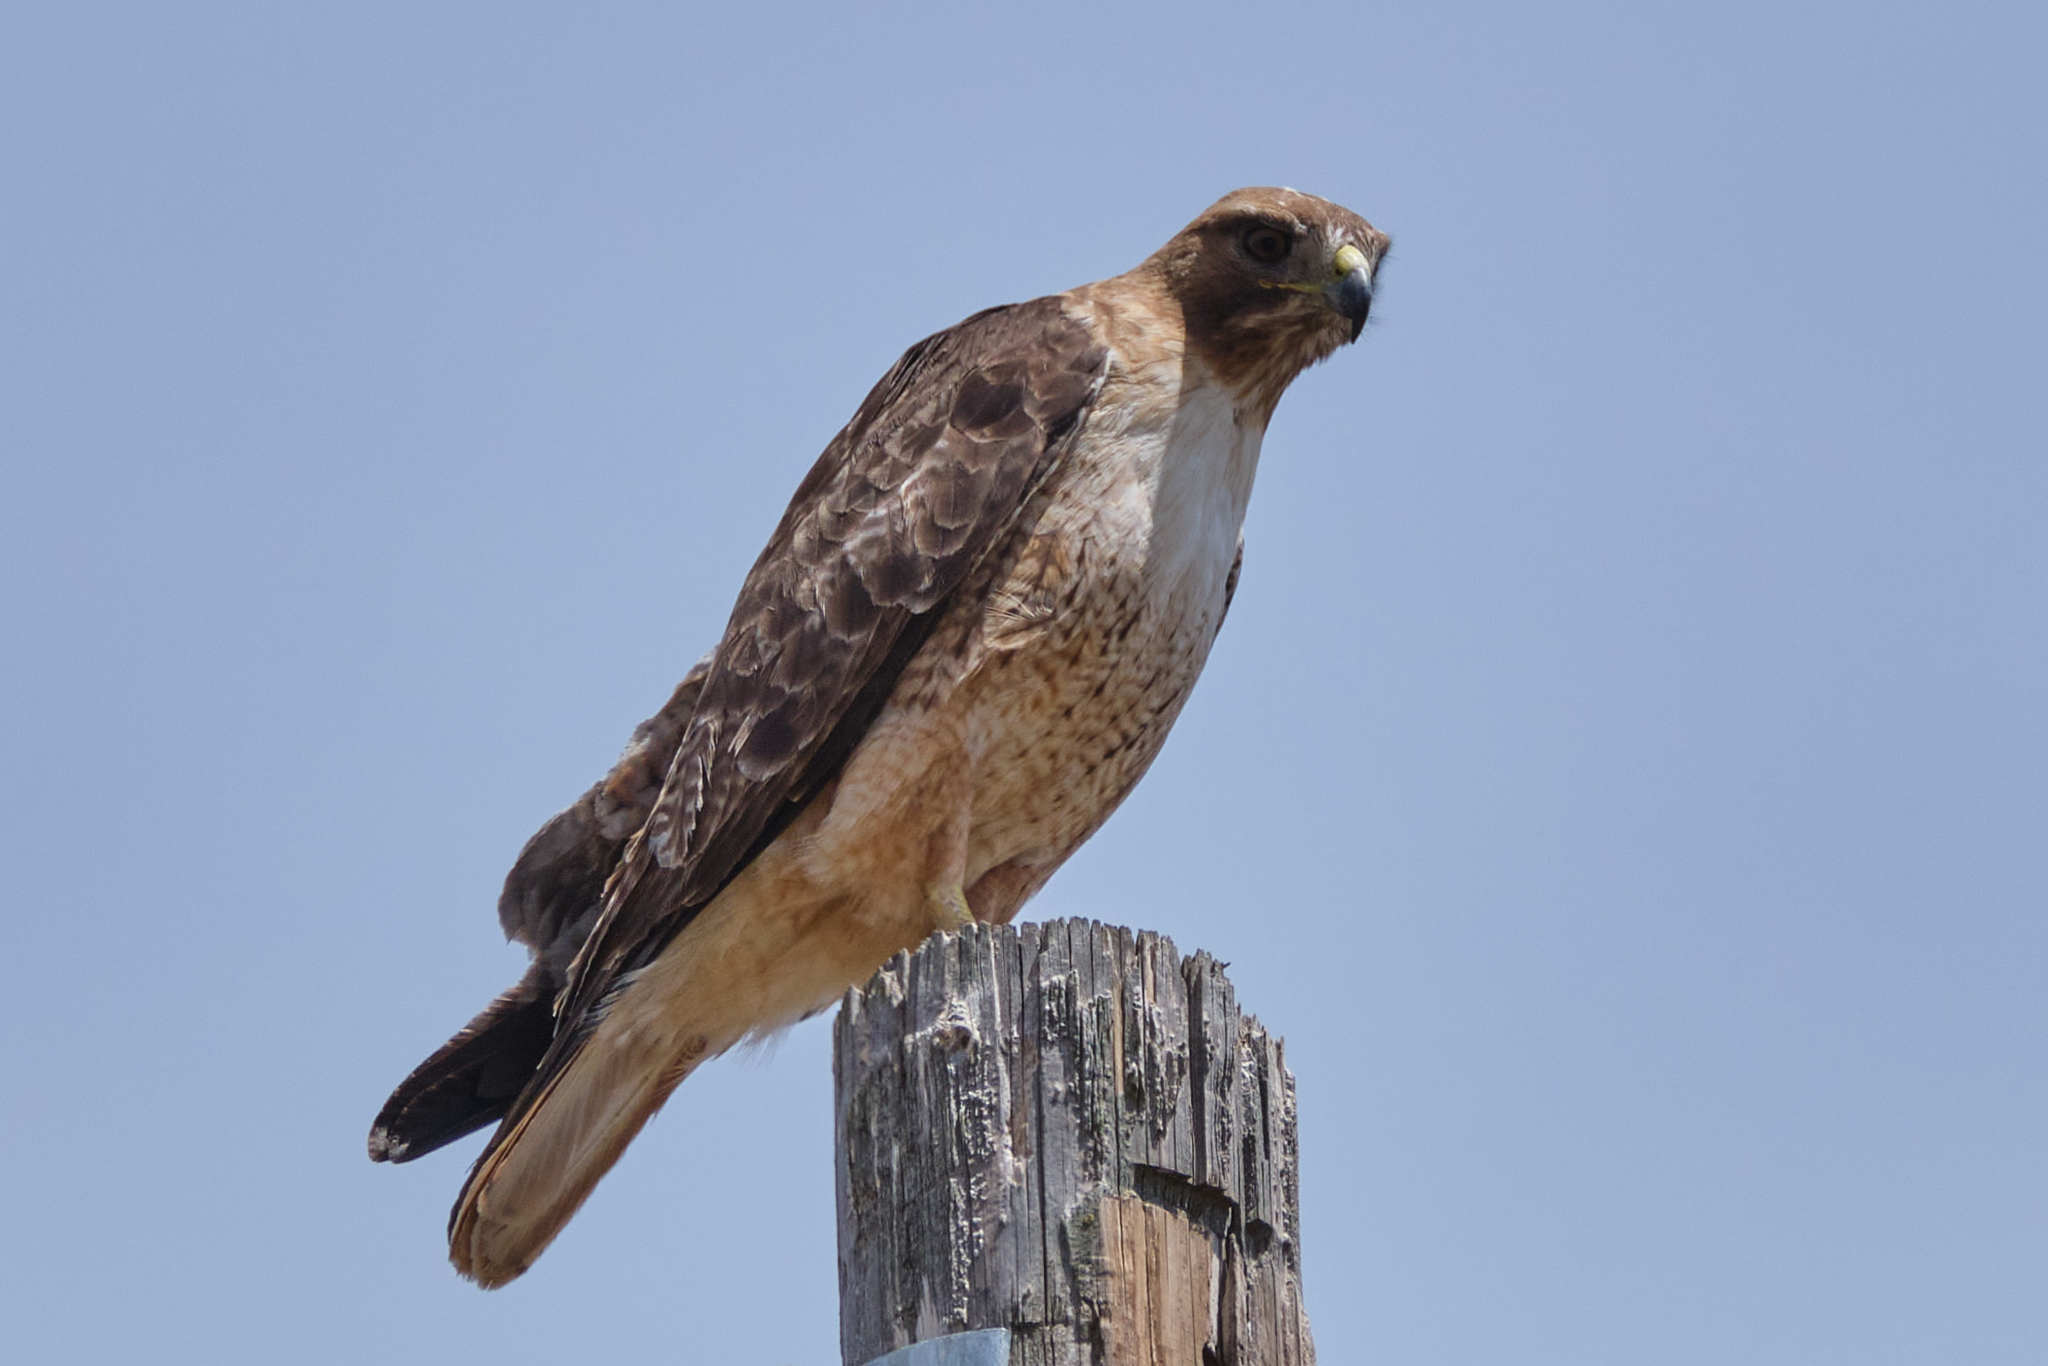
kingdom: Animalia
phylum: Chordata
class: Aves
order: Accipitriformes
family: Accipitridae
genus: Buteo
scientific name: Buteo jamaicensis
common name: Red-tailed hawk
